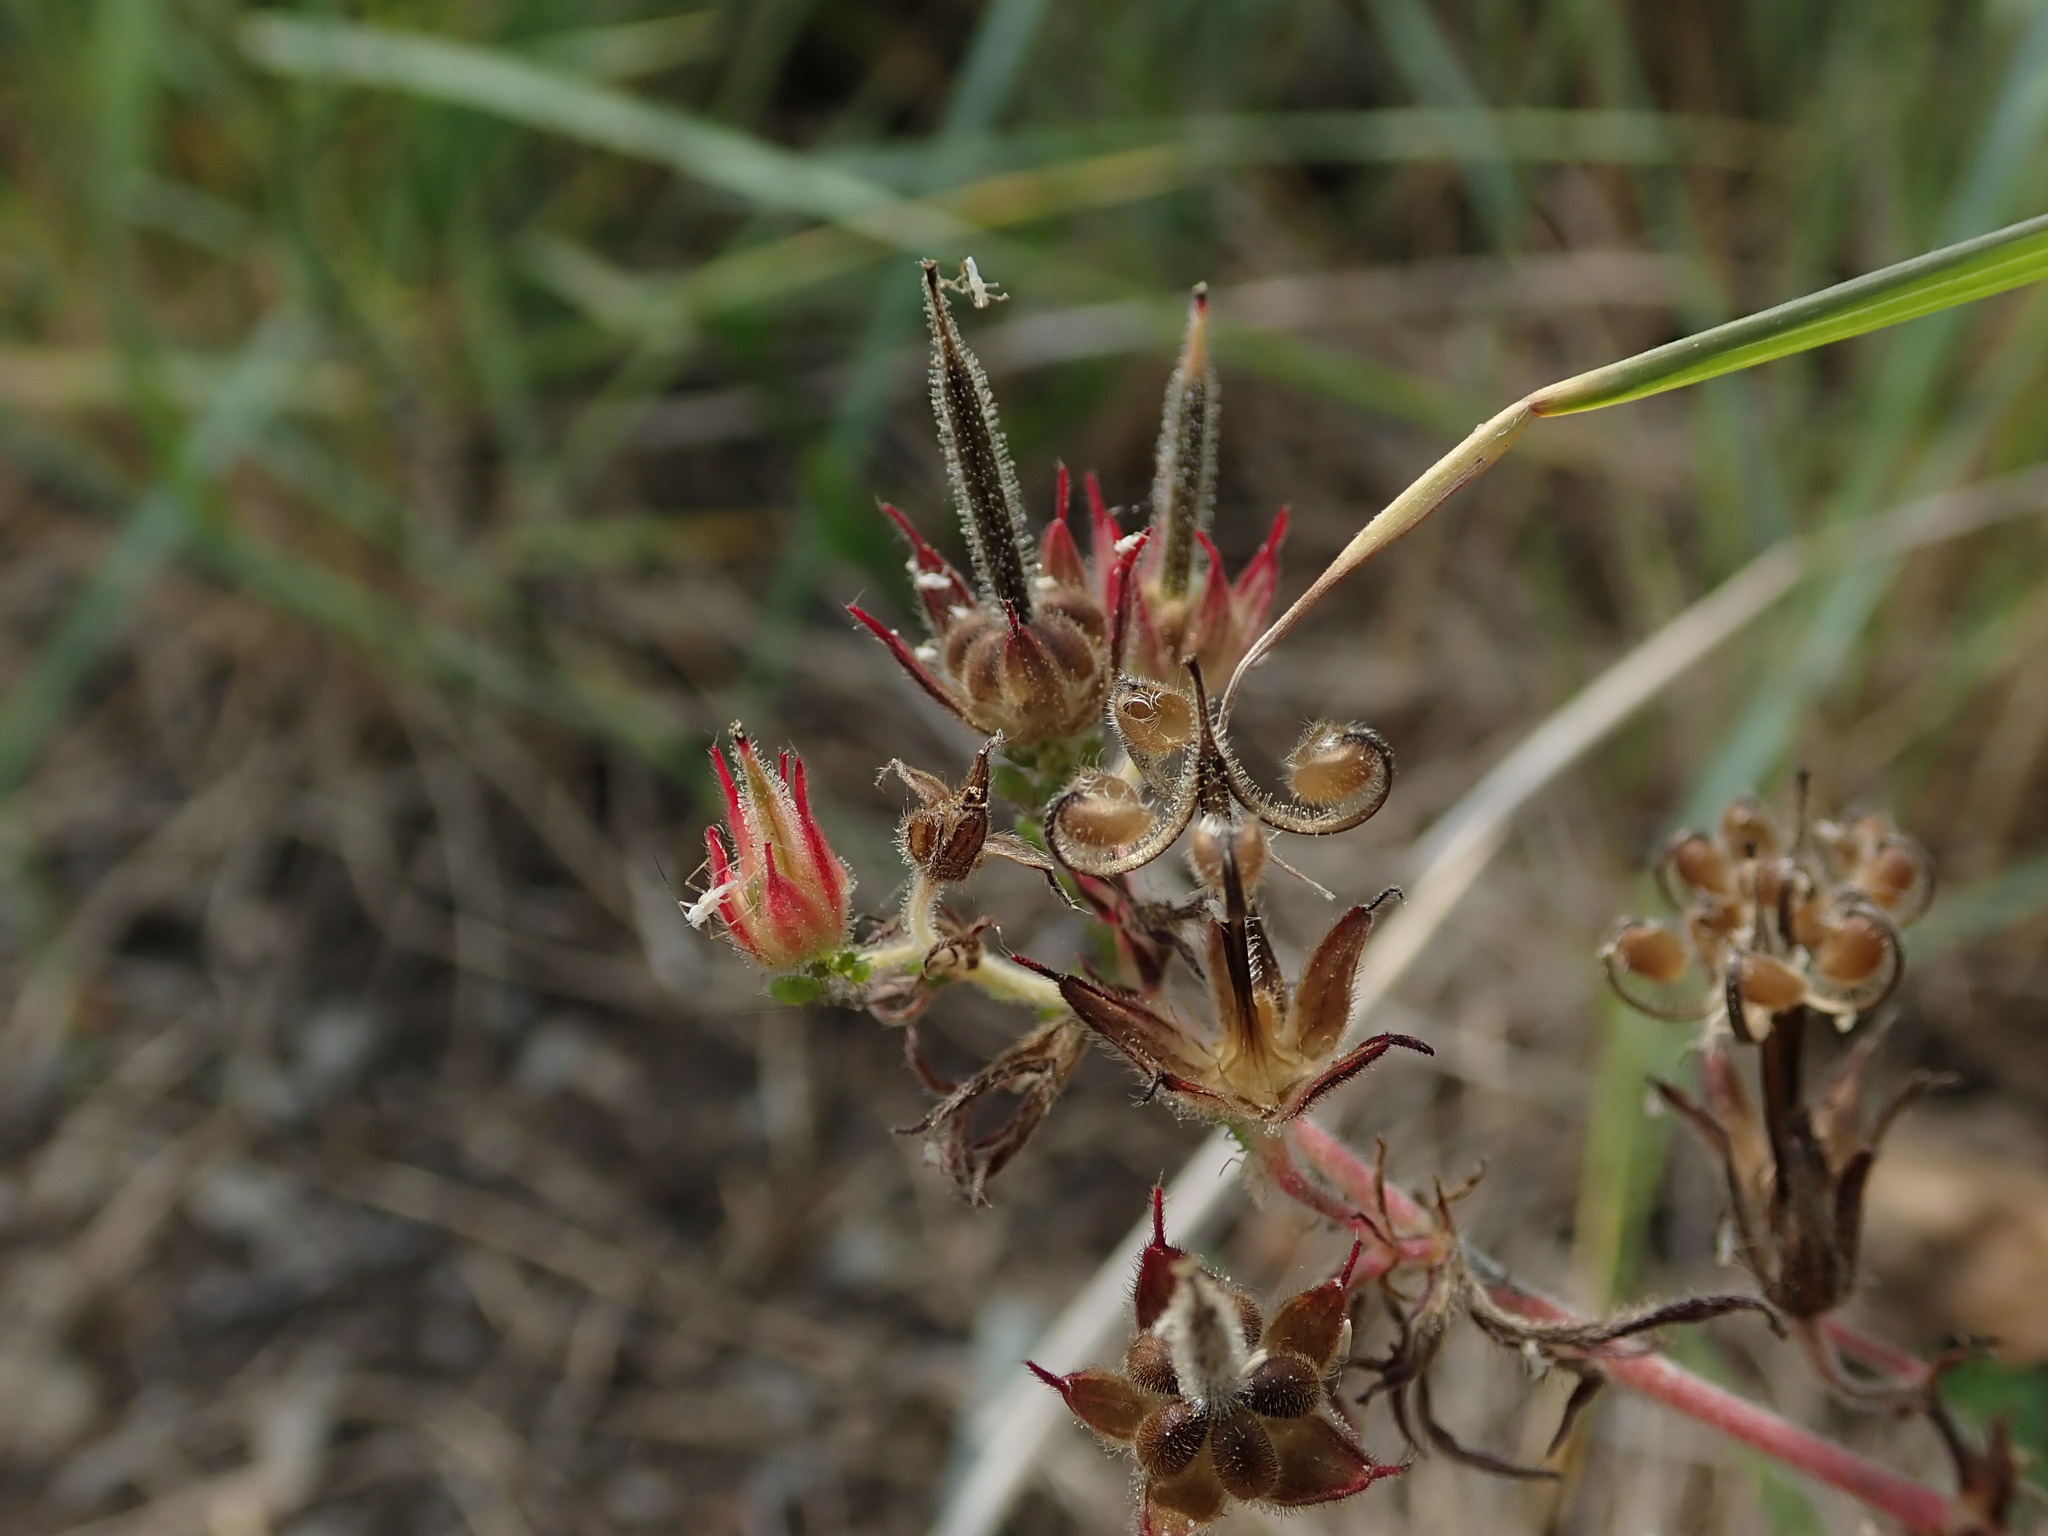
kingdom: Plantae
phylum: Tracheophyta
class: Magnoliopsida
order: Geraniales
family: Geraniaceae
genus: Geranium
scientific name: Geranium dissectum
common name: Cut-leaved crane's-bill
